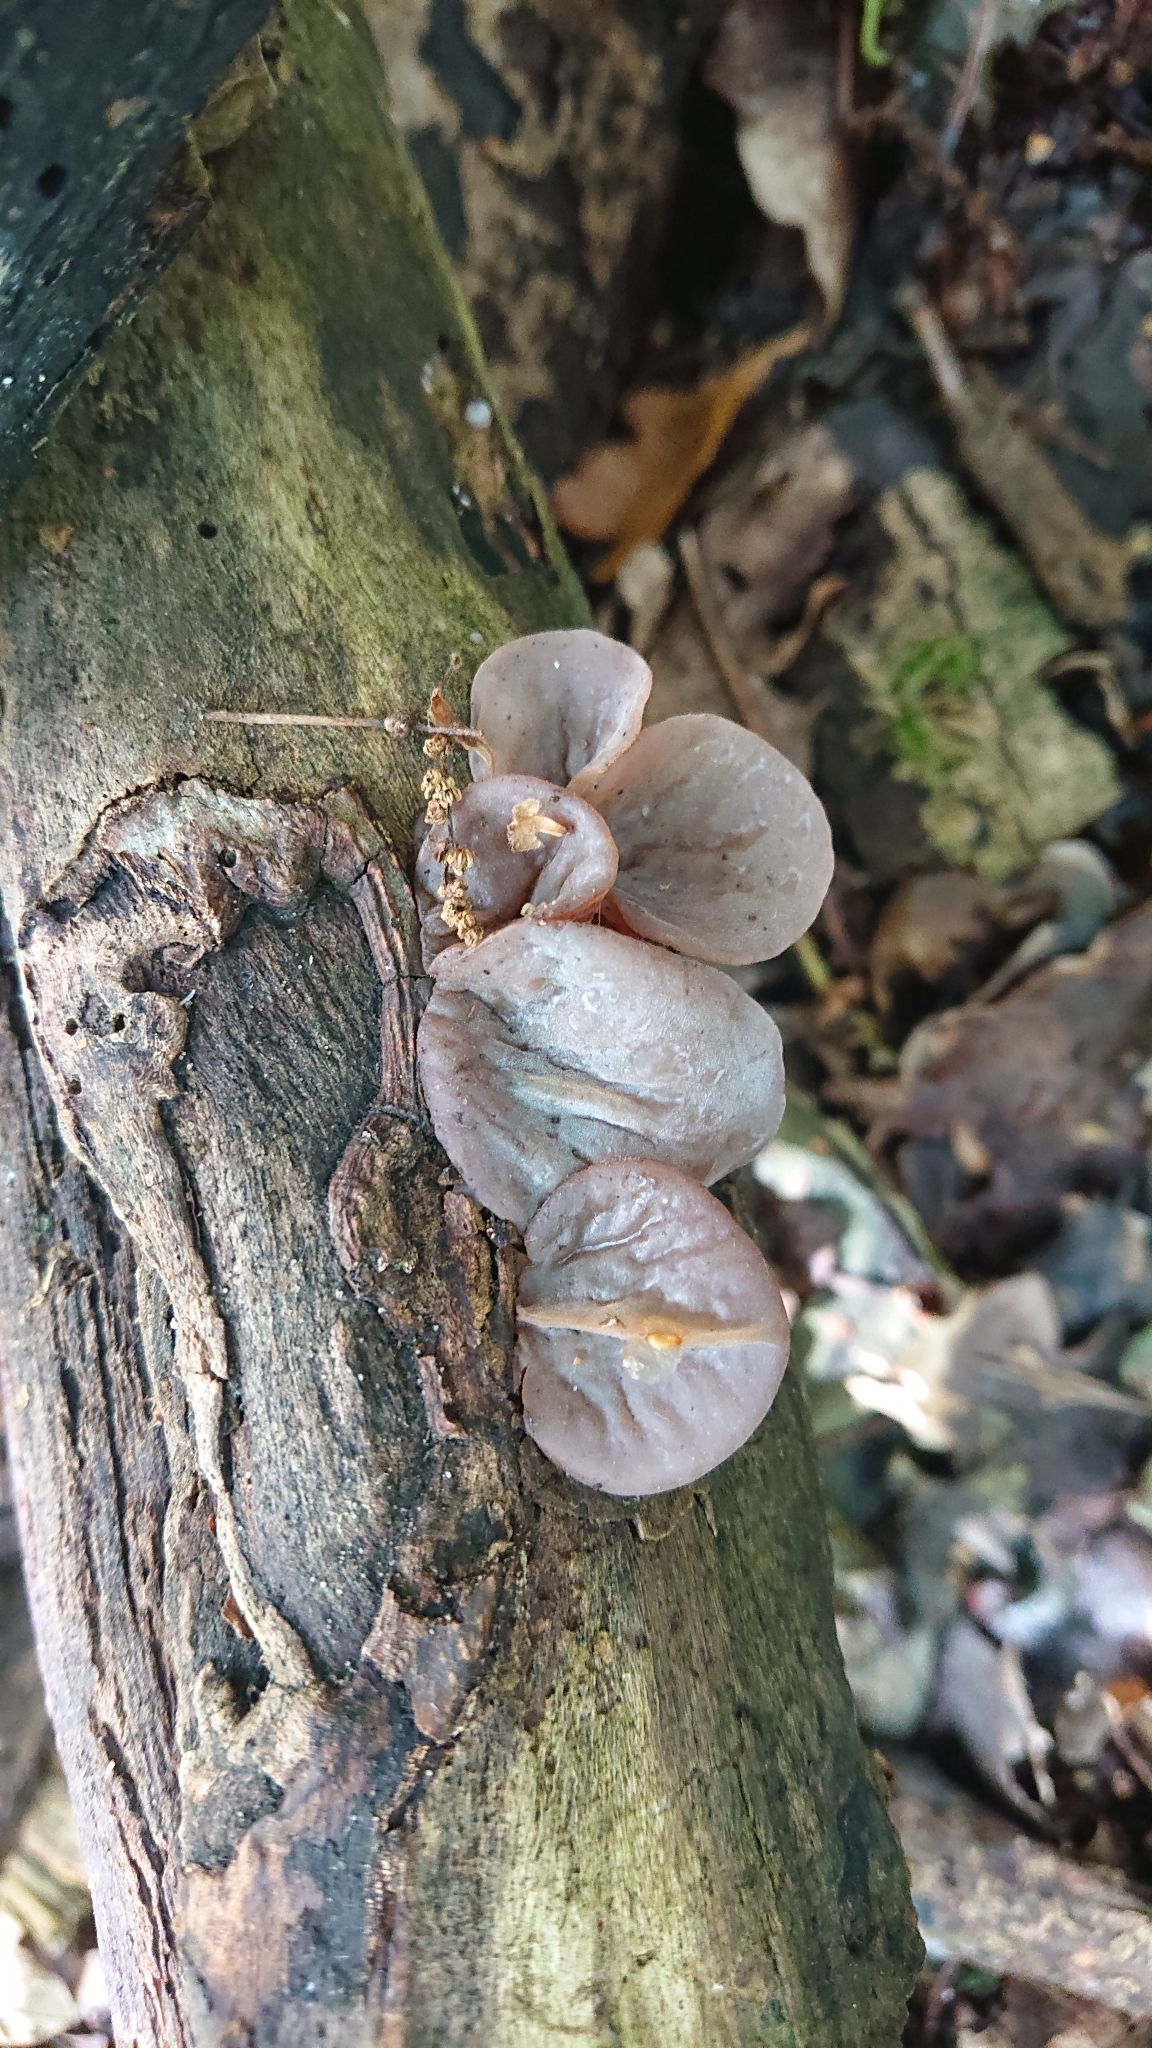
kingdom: Fungi
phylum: Basidiomycota
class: Agaricomycetes
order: Auriculariales
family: Auriculariaceae
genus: Auricularia
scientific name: Auricularia auricula-judae
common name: Jelly ear
